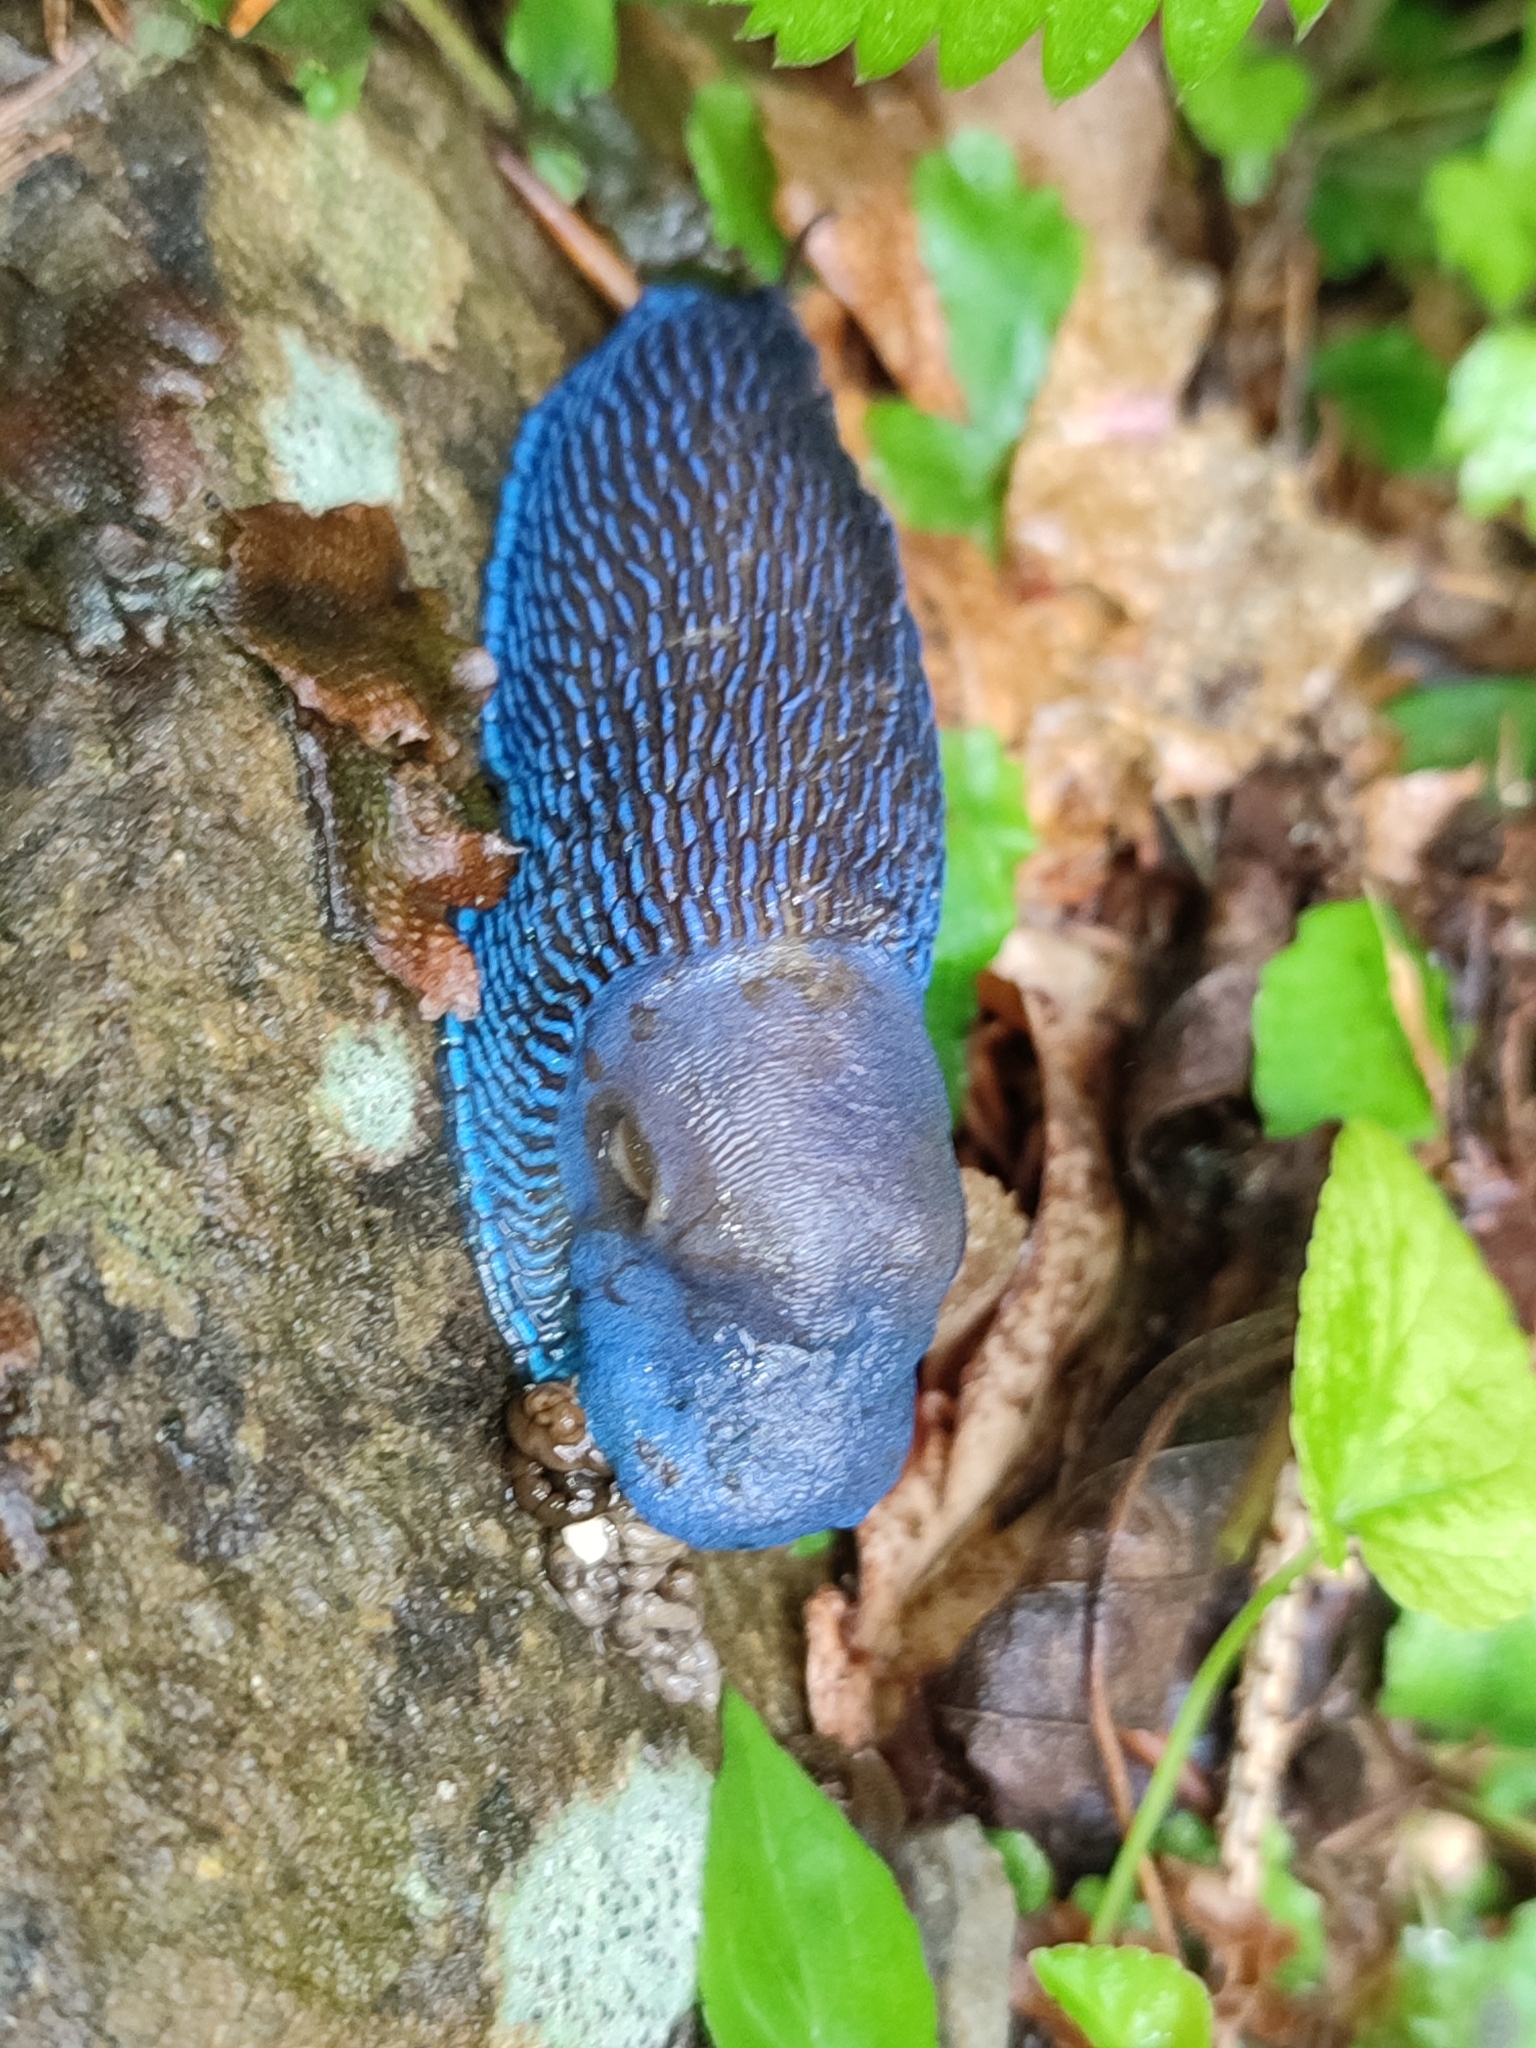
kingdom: Animalia
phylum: Mollusca
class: Gastropoda
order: Stylommatophora
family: Limacidae
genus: Bielzia
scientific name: Bielzia coerulans
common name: Carpathian blue slug
